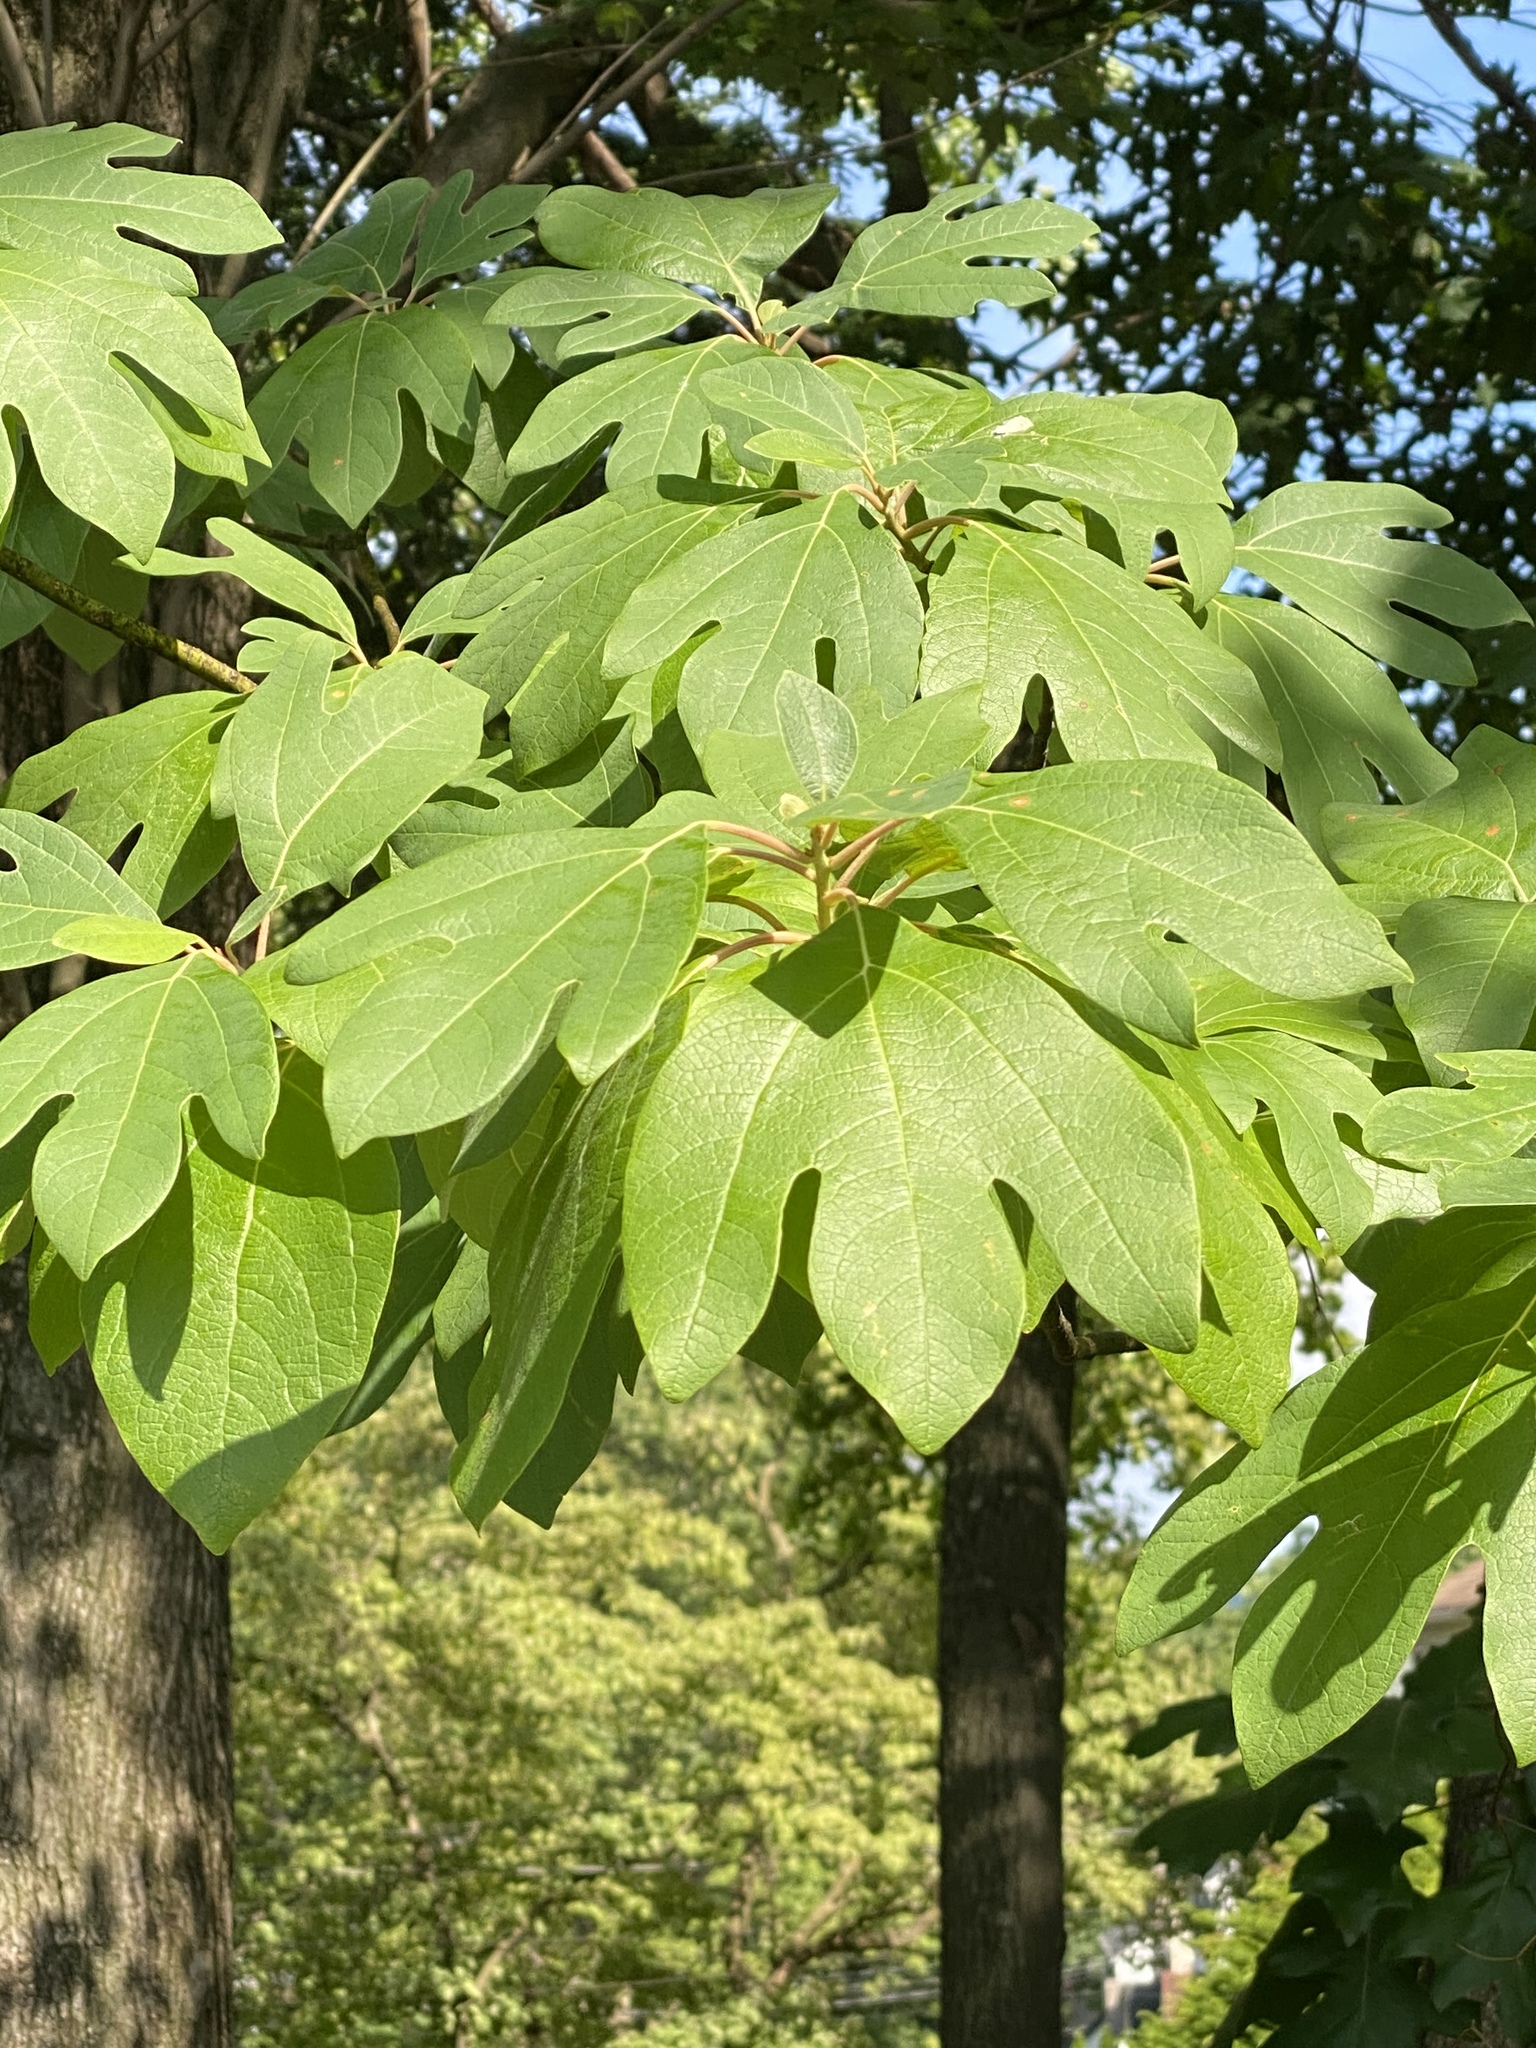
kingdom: Plantae
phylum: Tracheophyta
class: Magnoliopsida
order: Laurales
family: Lauraceae
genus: Sassafras
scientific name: Sassafras albidum
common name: Sassafras
